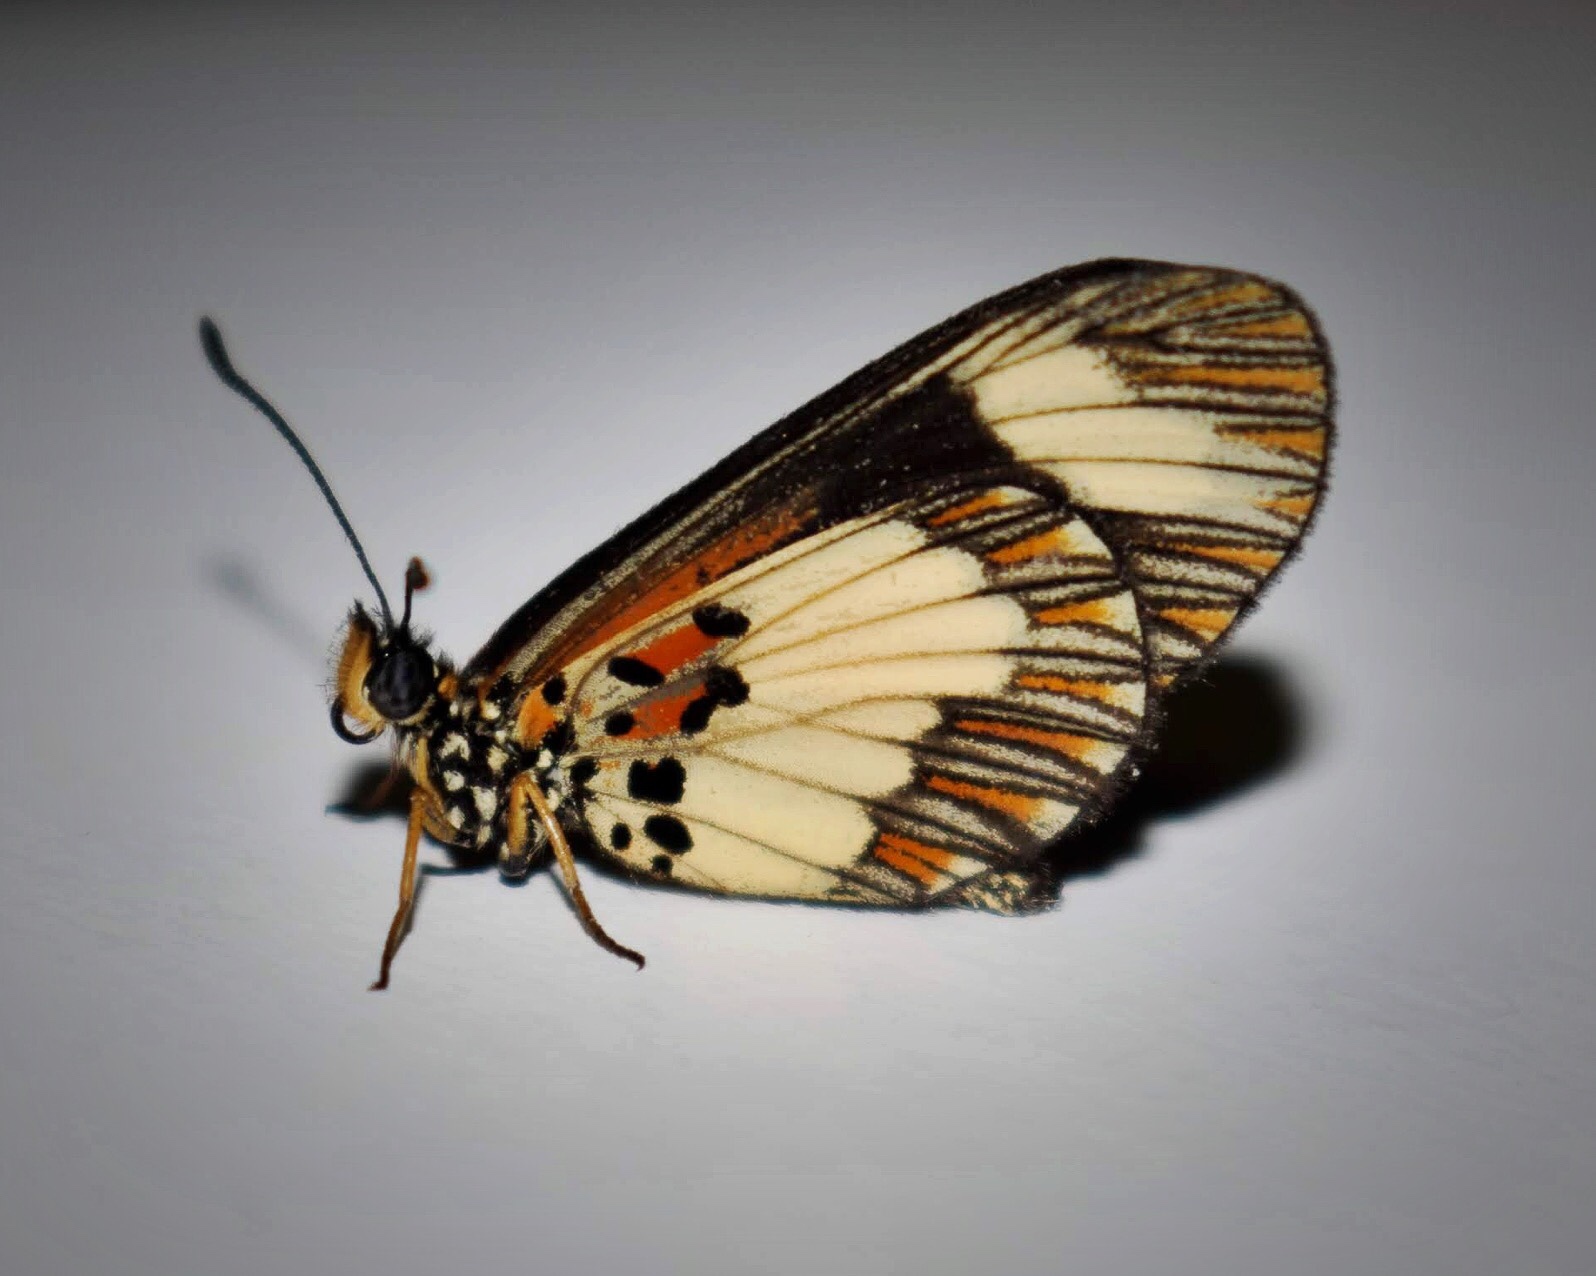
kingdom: Animalia
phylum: Arthropoda
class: Insecta
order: Lepidoptera
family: Nymphalidae
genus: Acraea
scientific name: Acraea cabira
